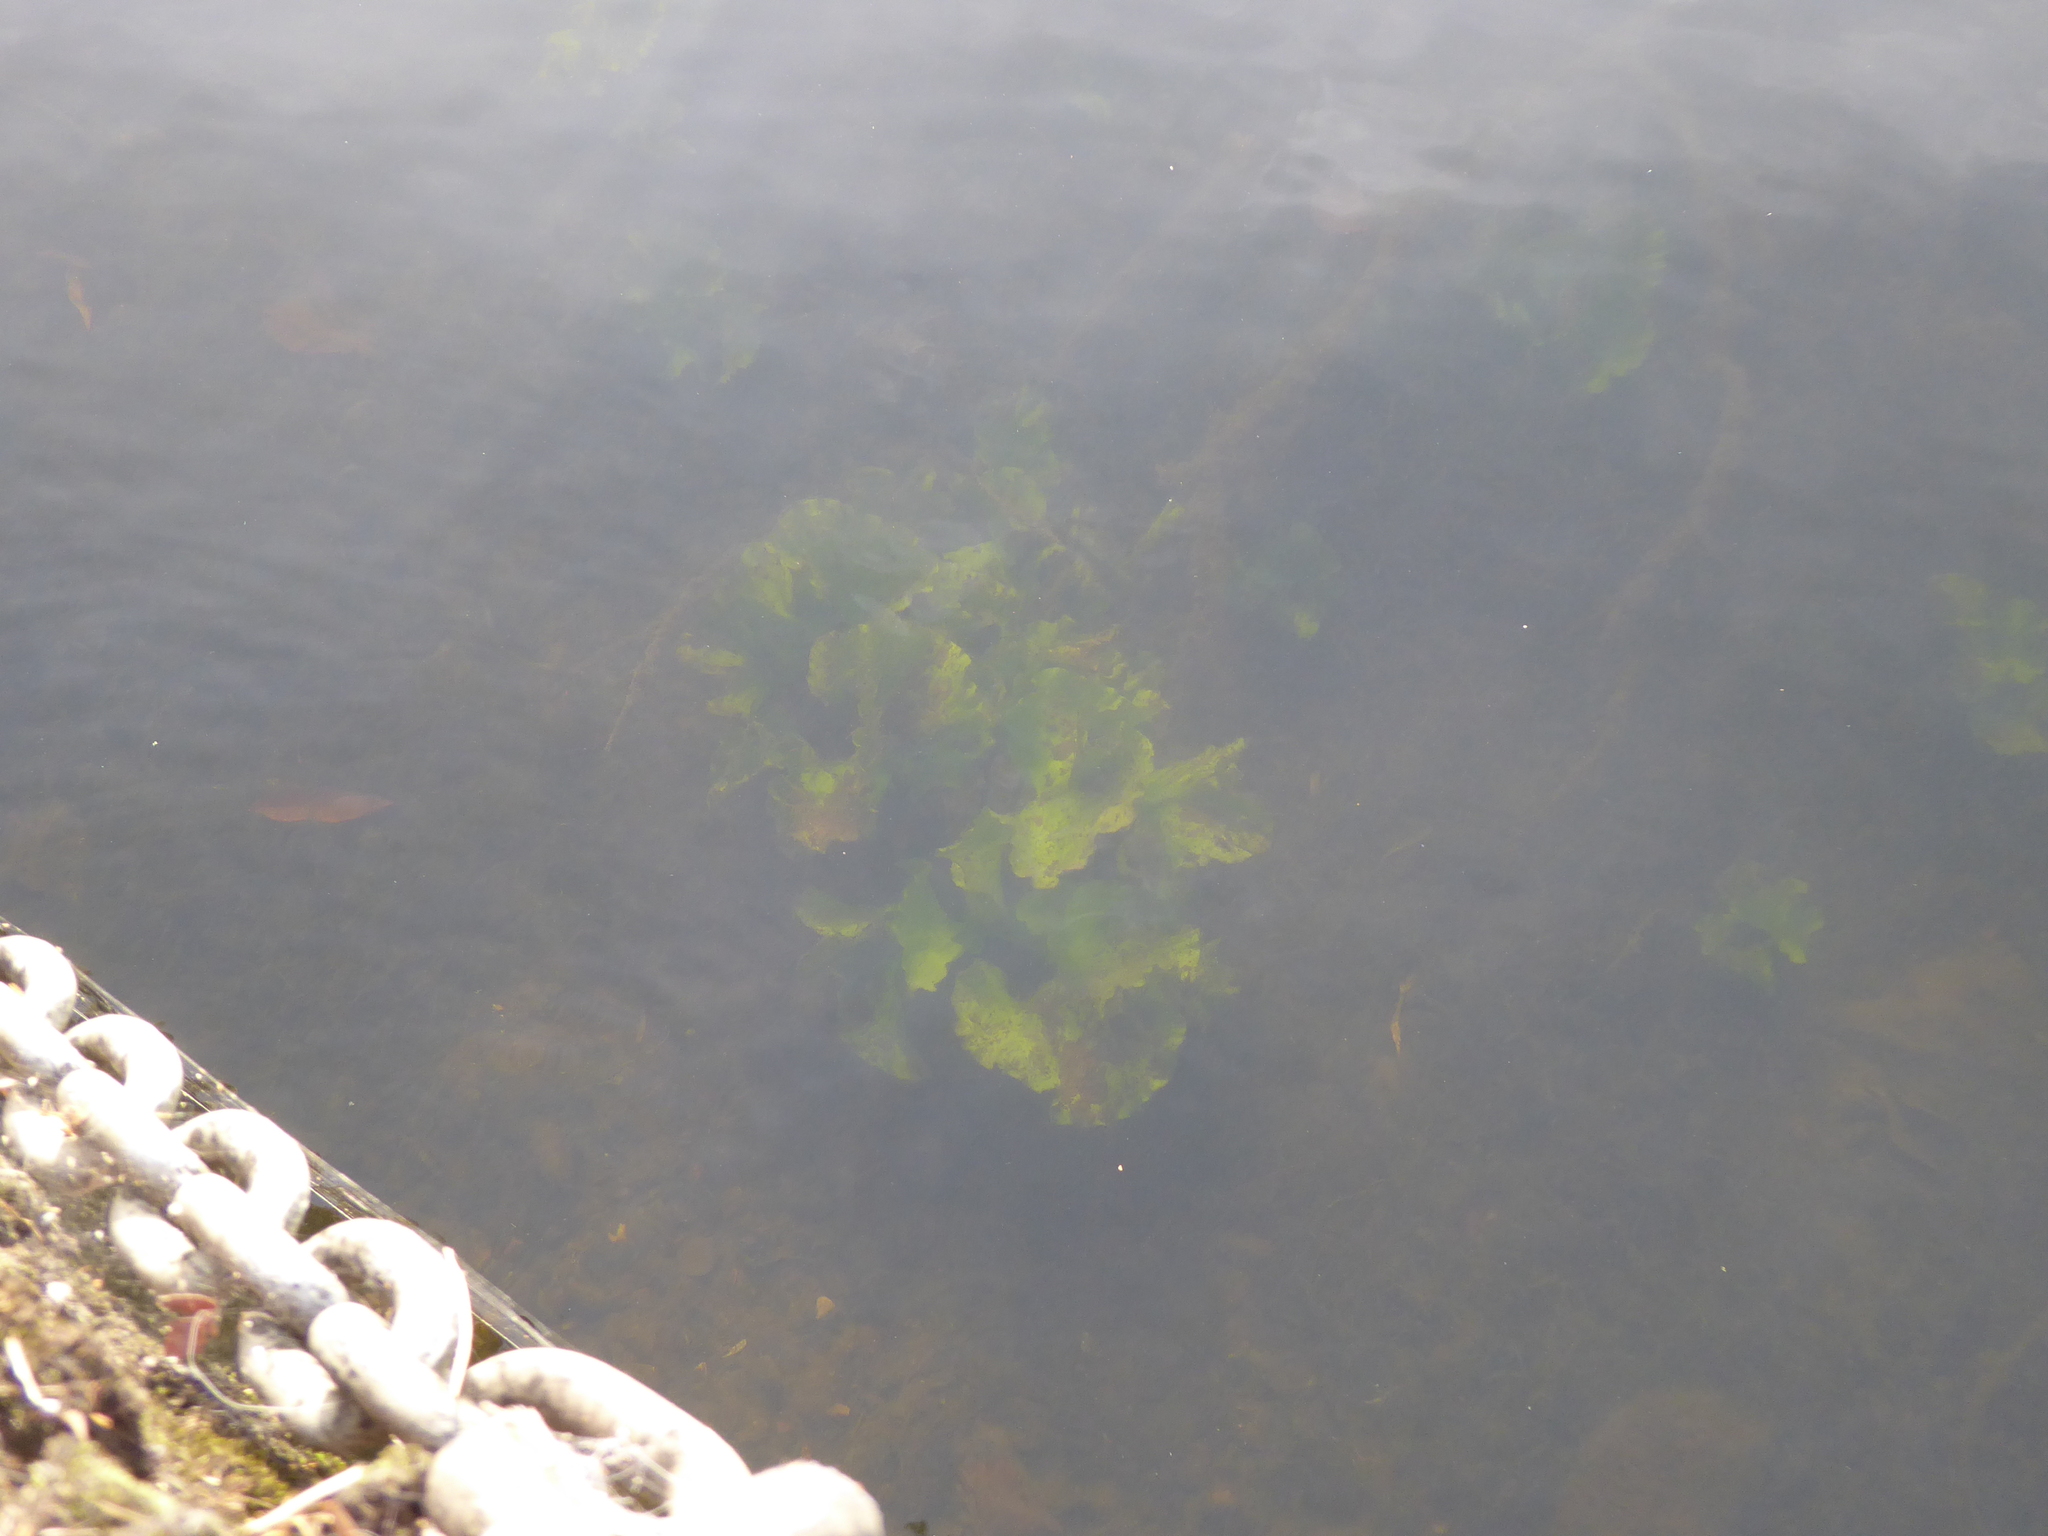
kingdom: Plantae
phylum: Tracheophyta
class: Magnoliopsida
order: Nymphaeales
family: Nymphaeaceae
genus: Nuphar
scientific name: Nuphar lutea
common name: Yellow water-lily
